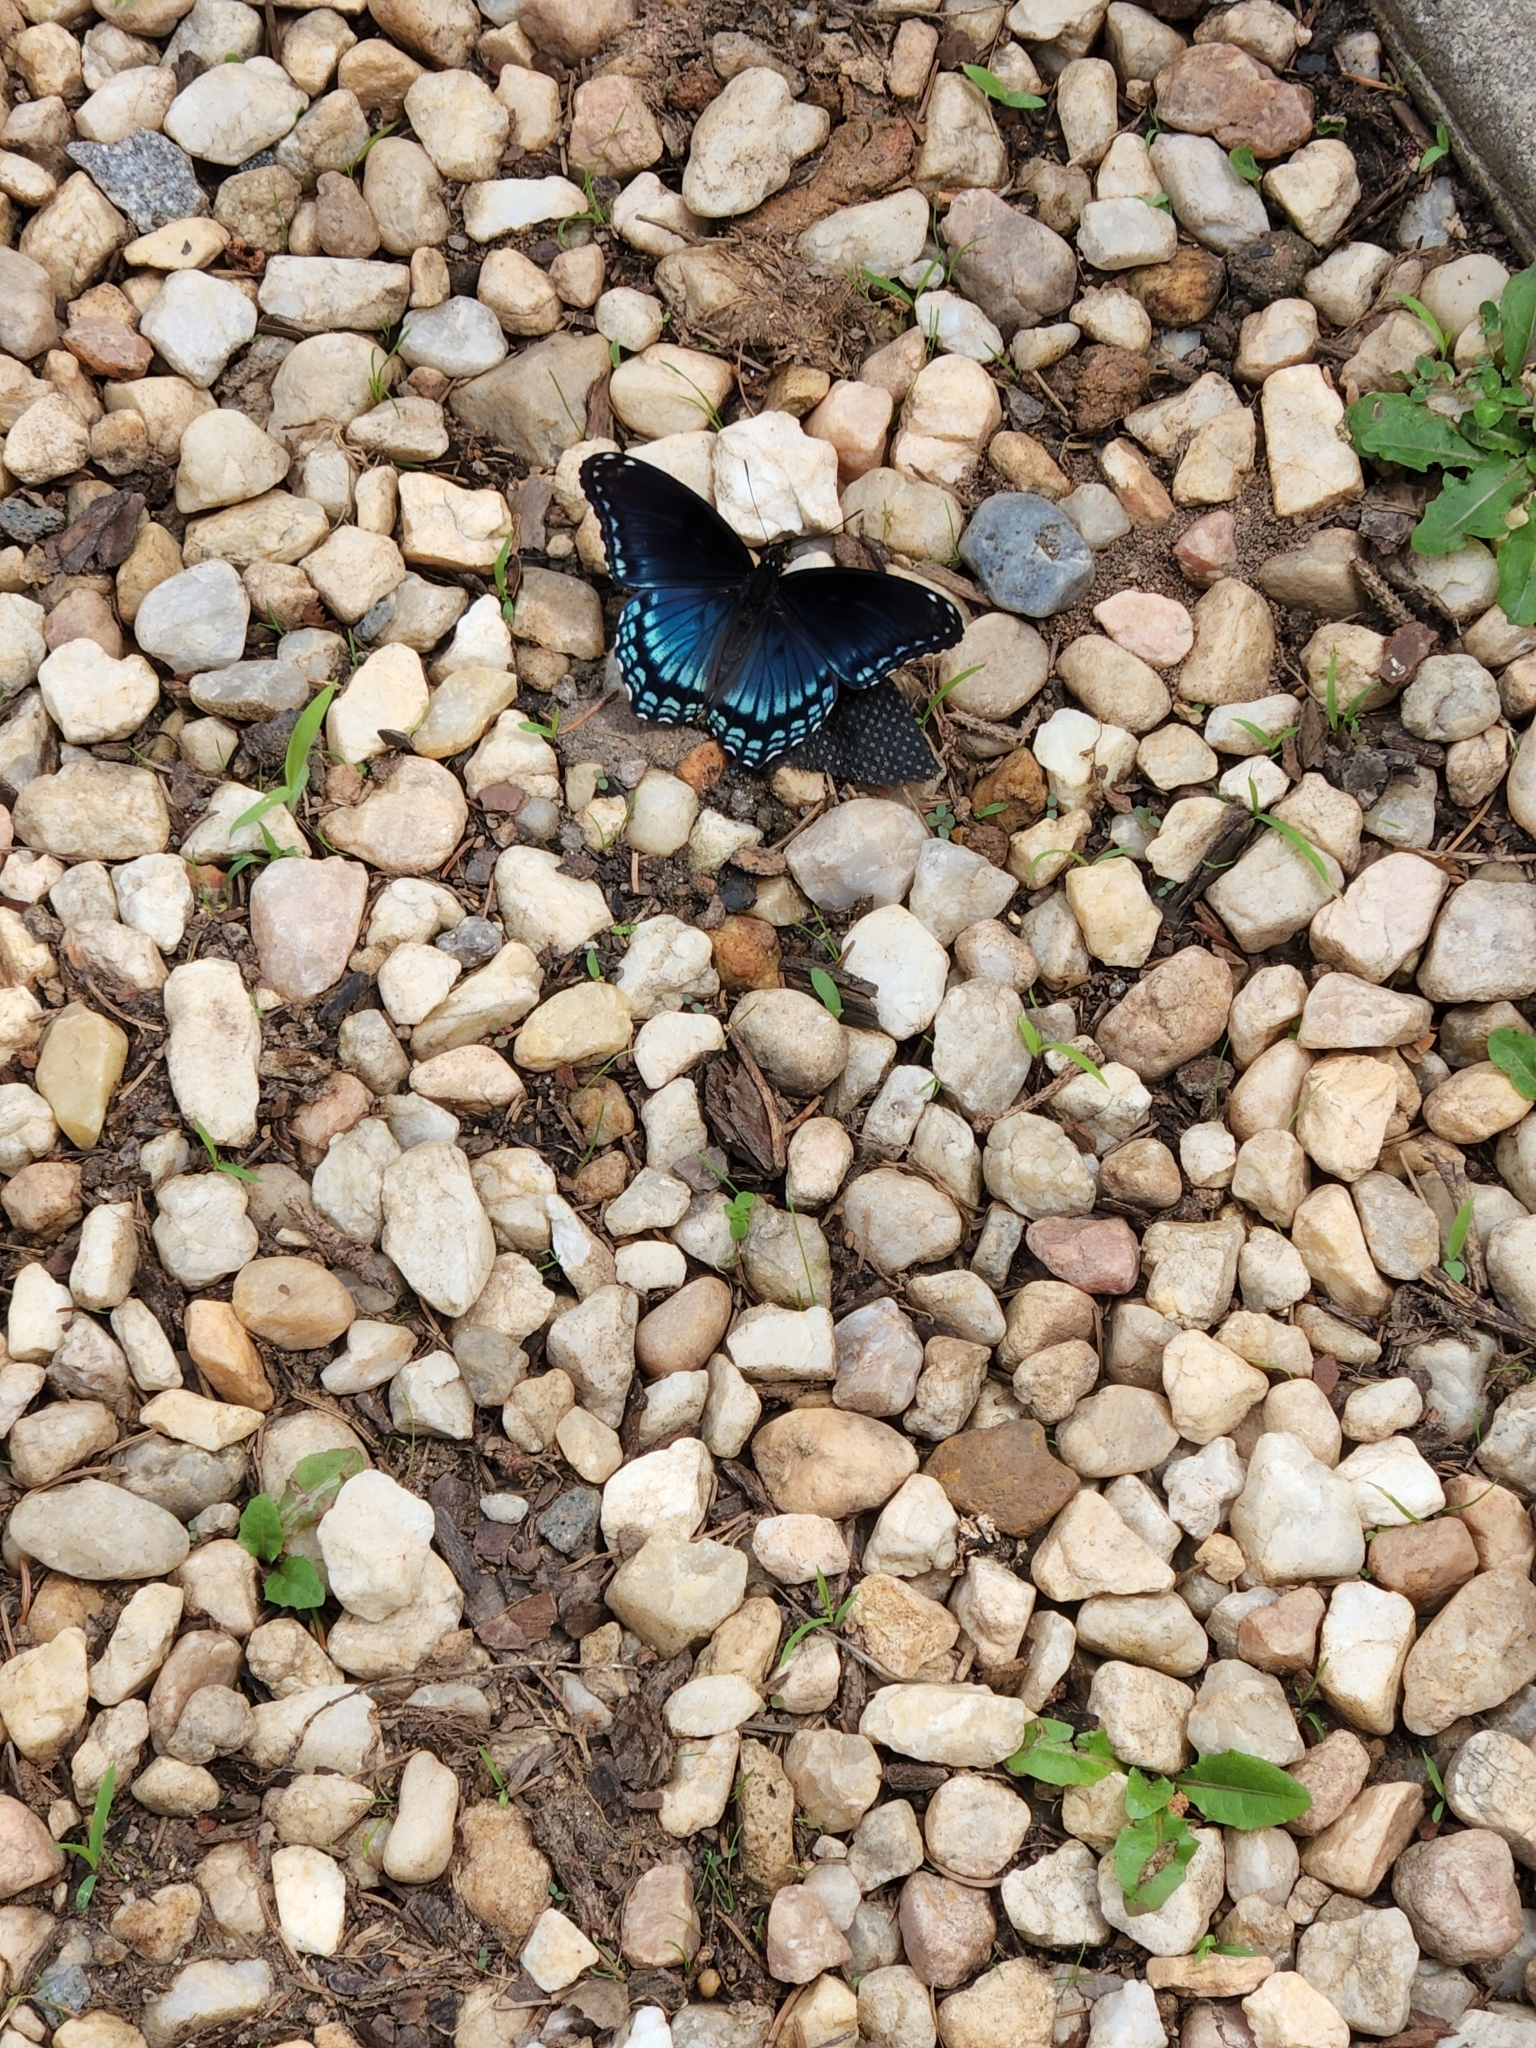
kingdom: Animalia
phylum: Arthropoda
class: Insecta
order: Lepidoptera
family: Nymphalidae
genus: Limenitis
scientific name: Limenitis astyanax
